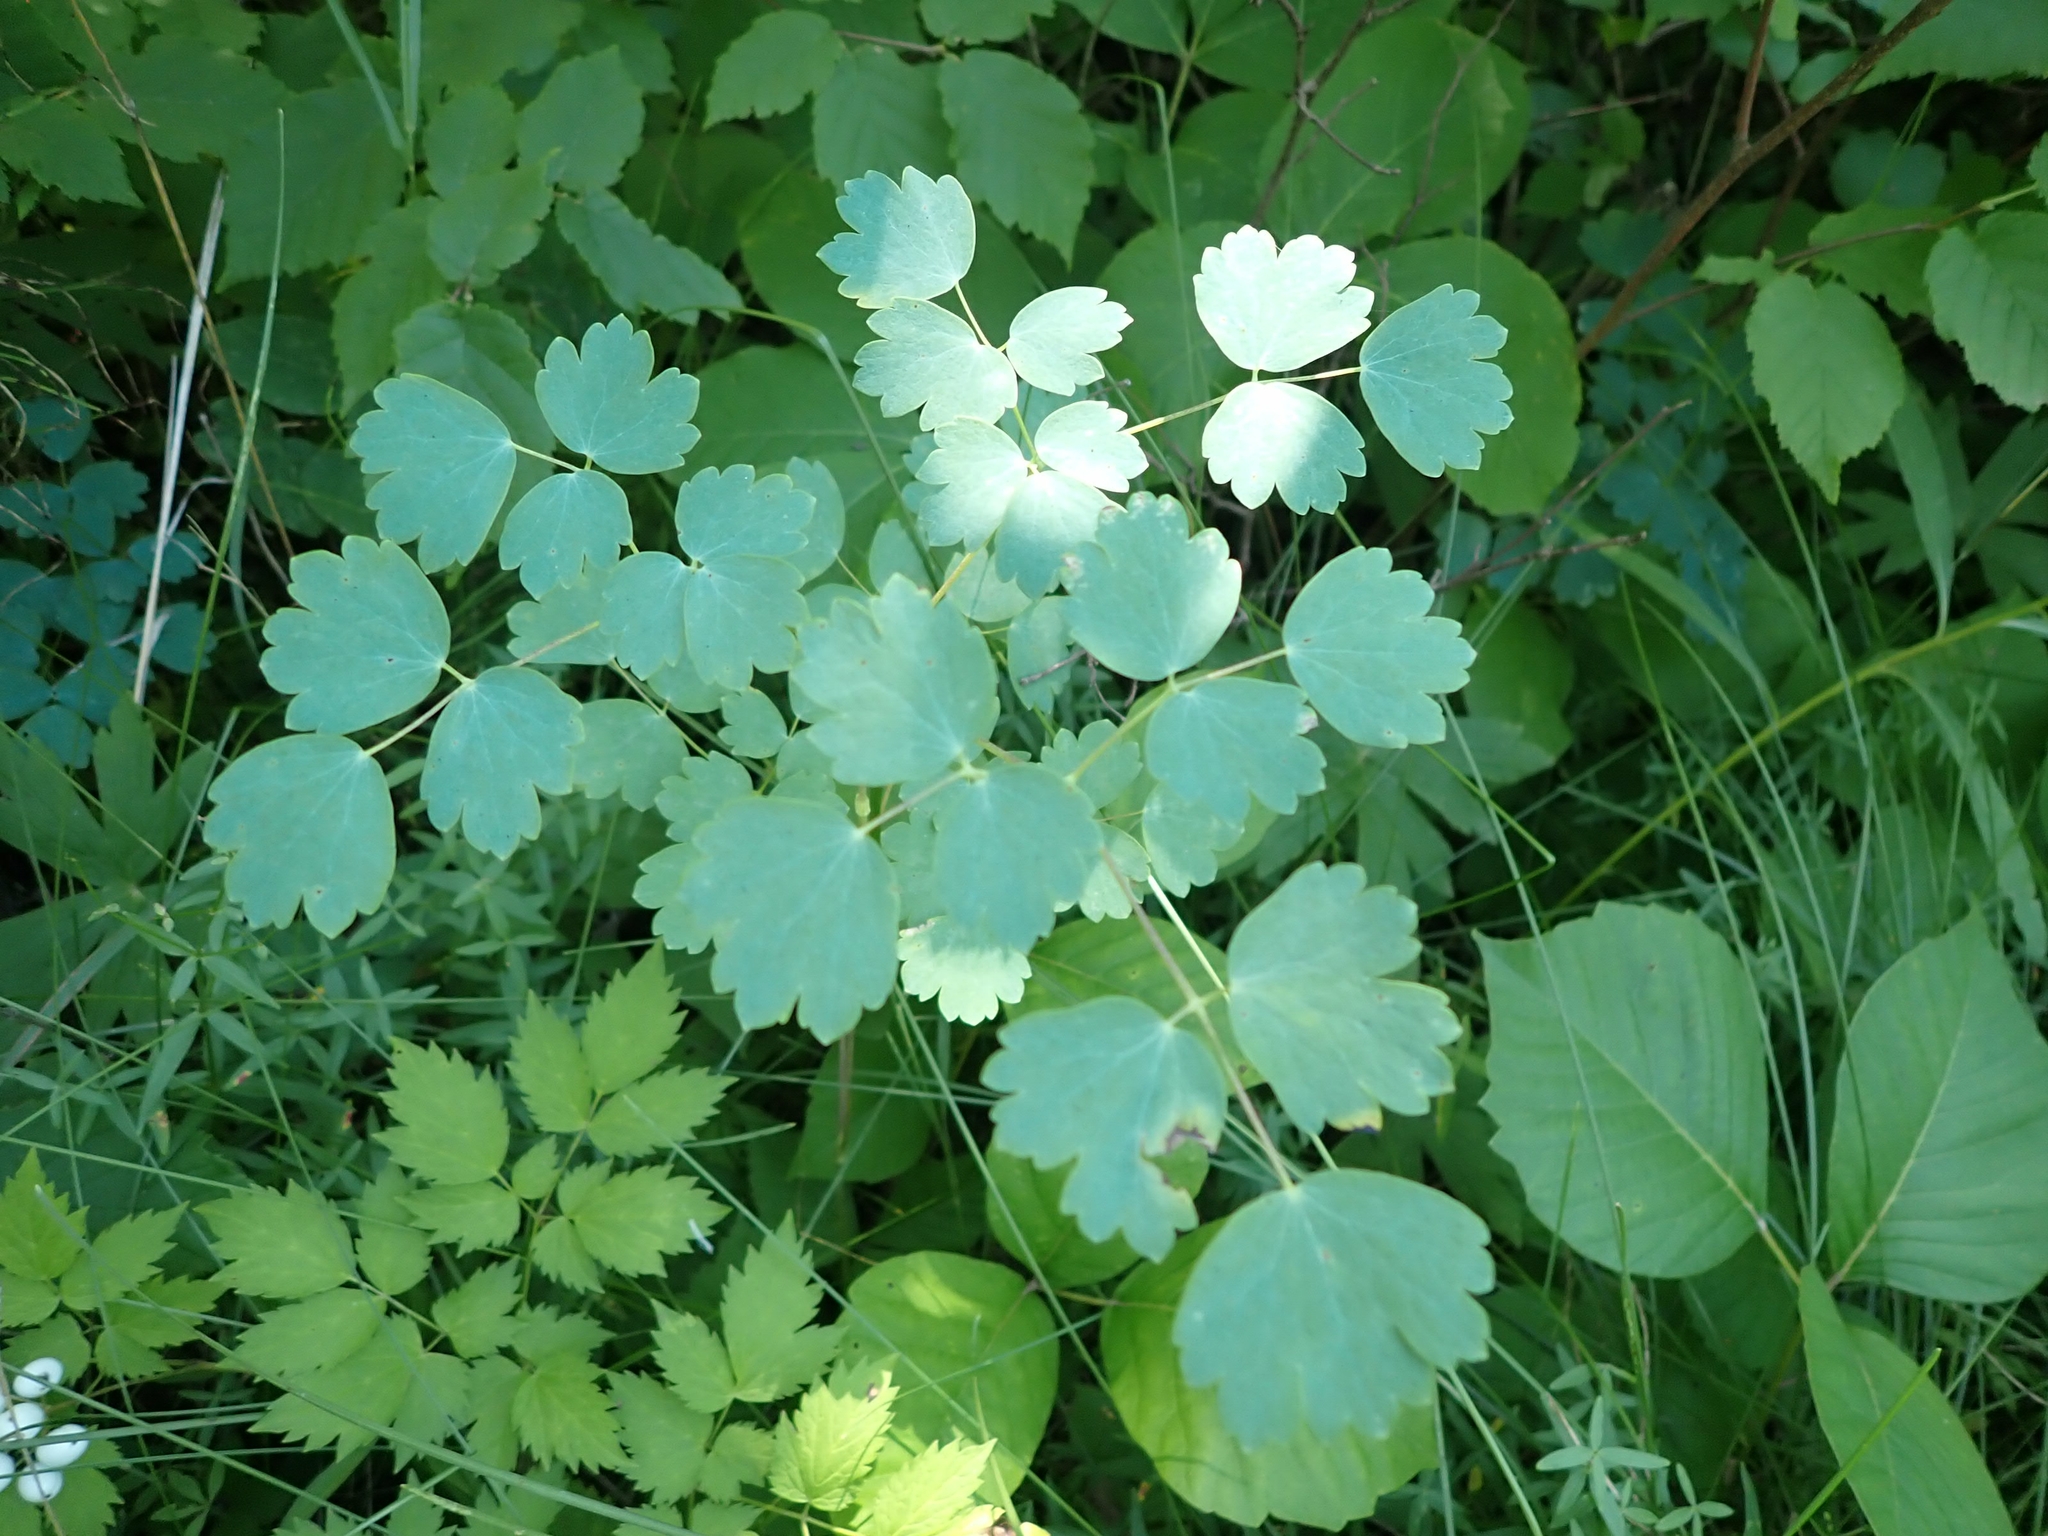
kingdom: Plantae
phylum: Tracheophyta
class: Magnoliopsida
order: Ranunculales
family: Ranunculaceae
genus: Thalictrum
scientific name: Thalictrum venulosum
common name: Early meadow-rue
